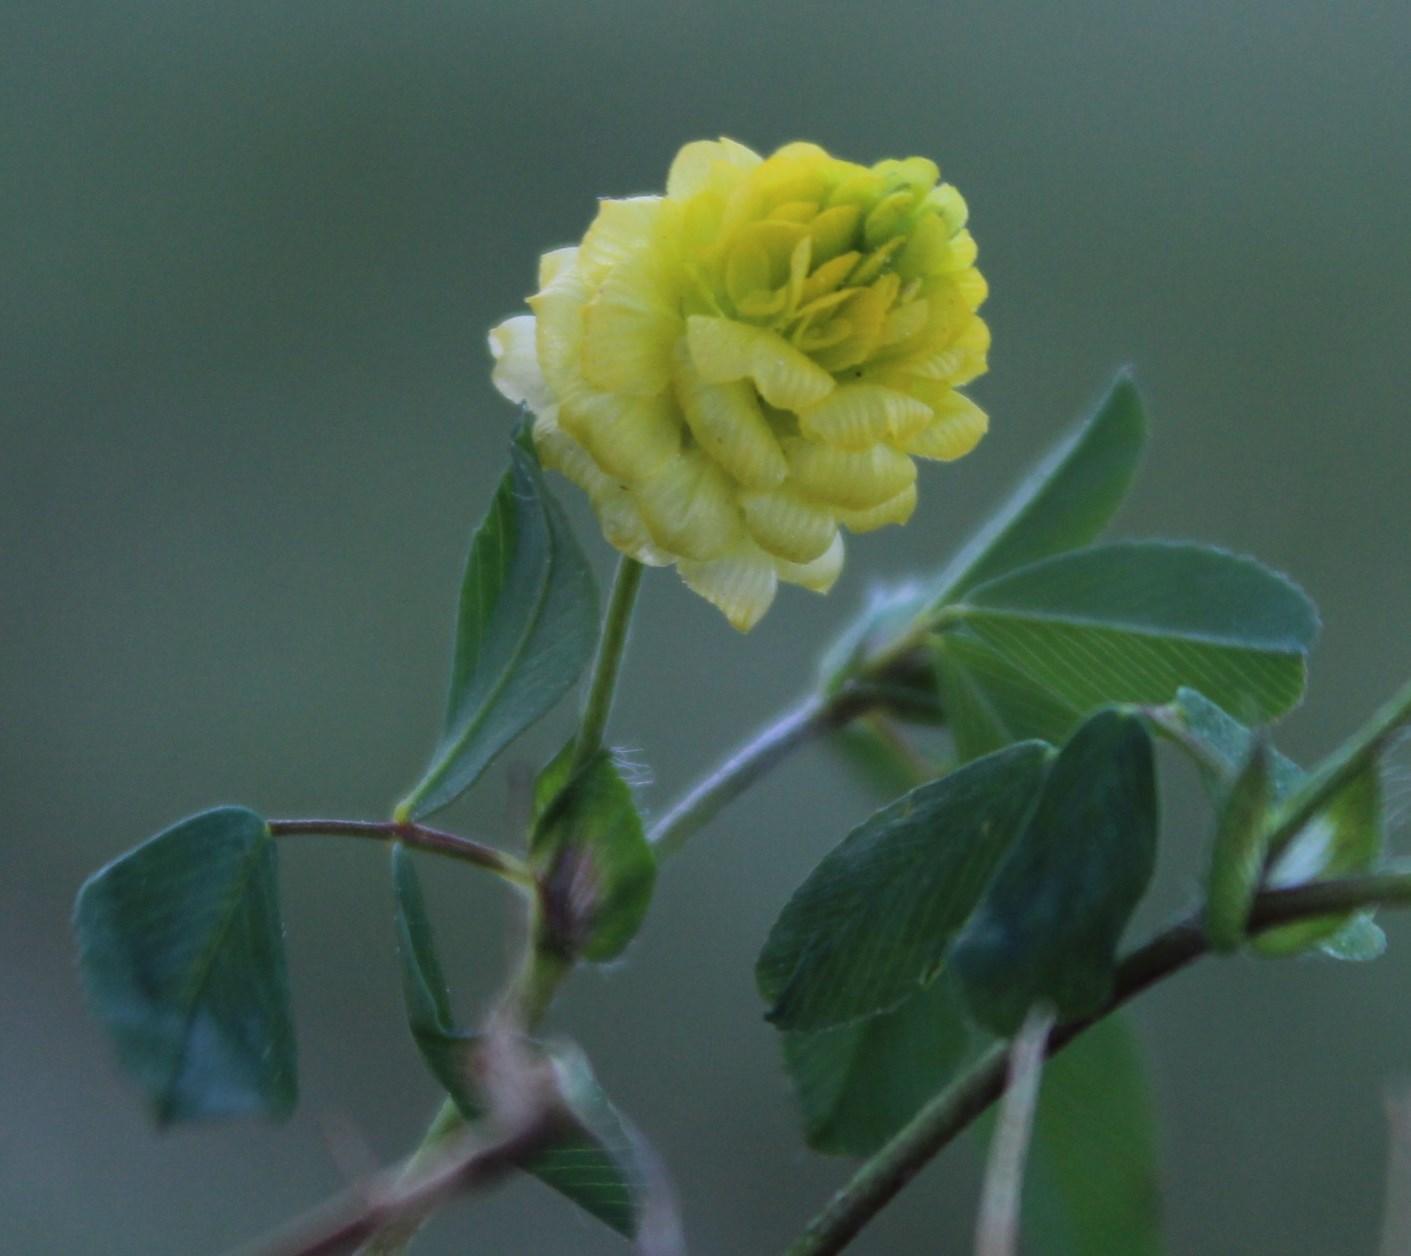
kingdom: Plantae
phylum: Tracheophyta
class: Magnoliopsida
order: Fabales
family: Fabaceae
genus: Trifolium
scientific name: Trifolium campestre
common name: Field clover
